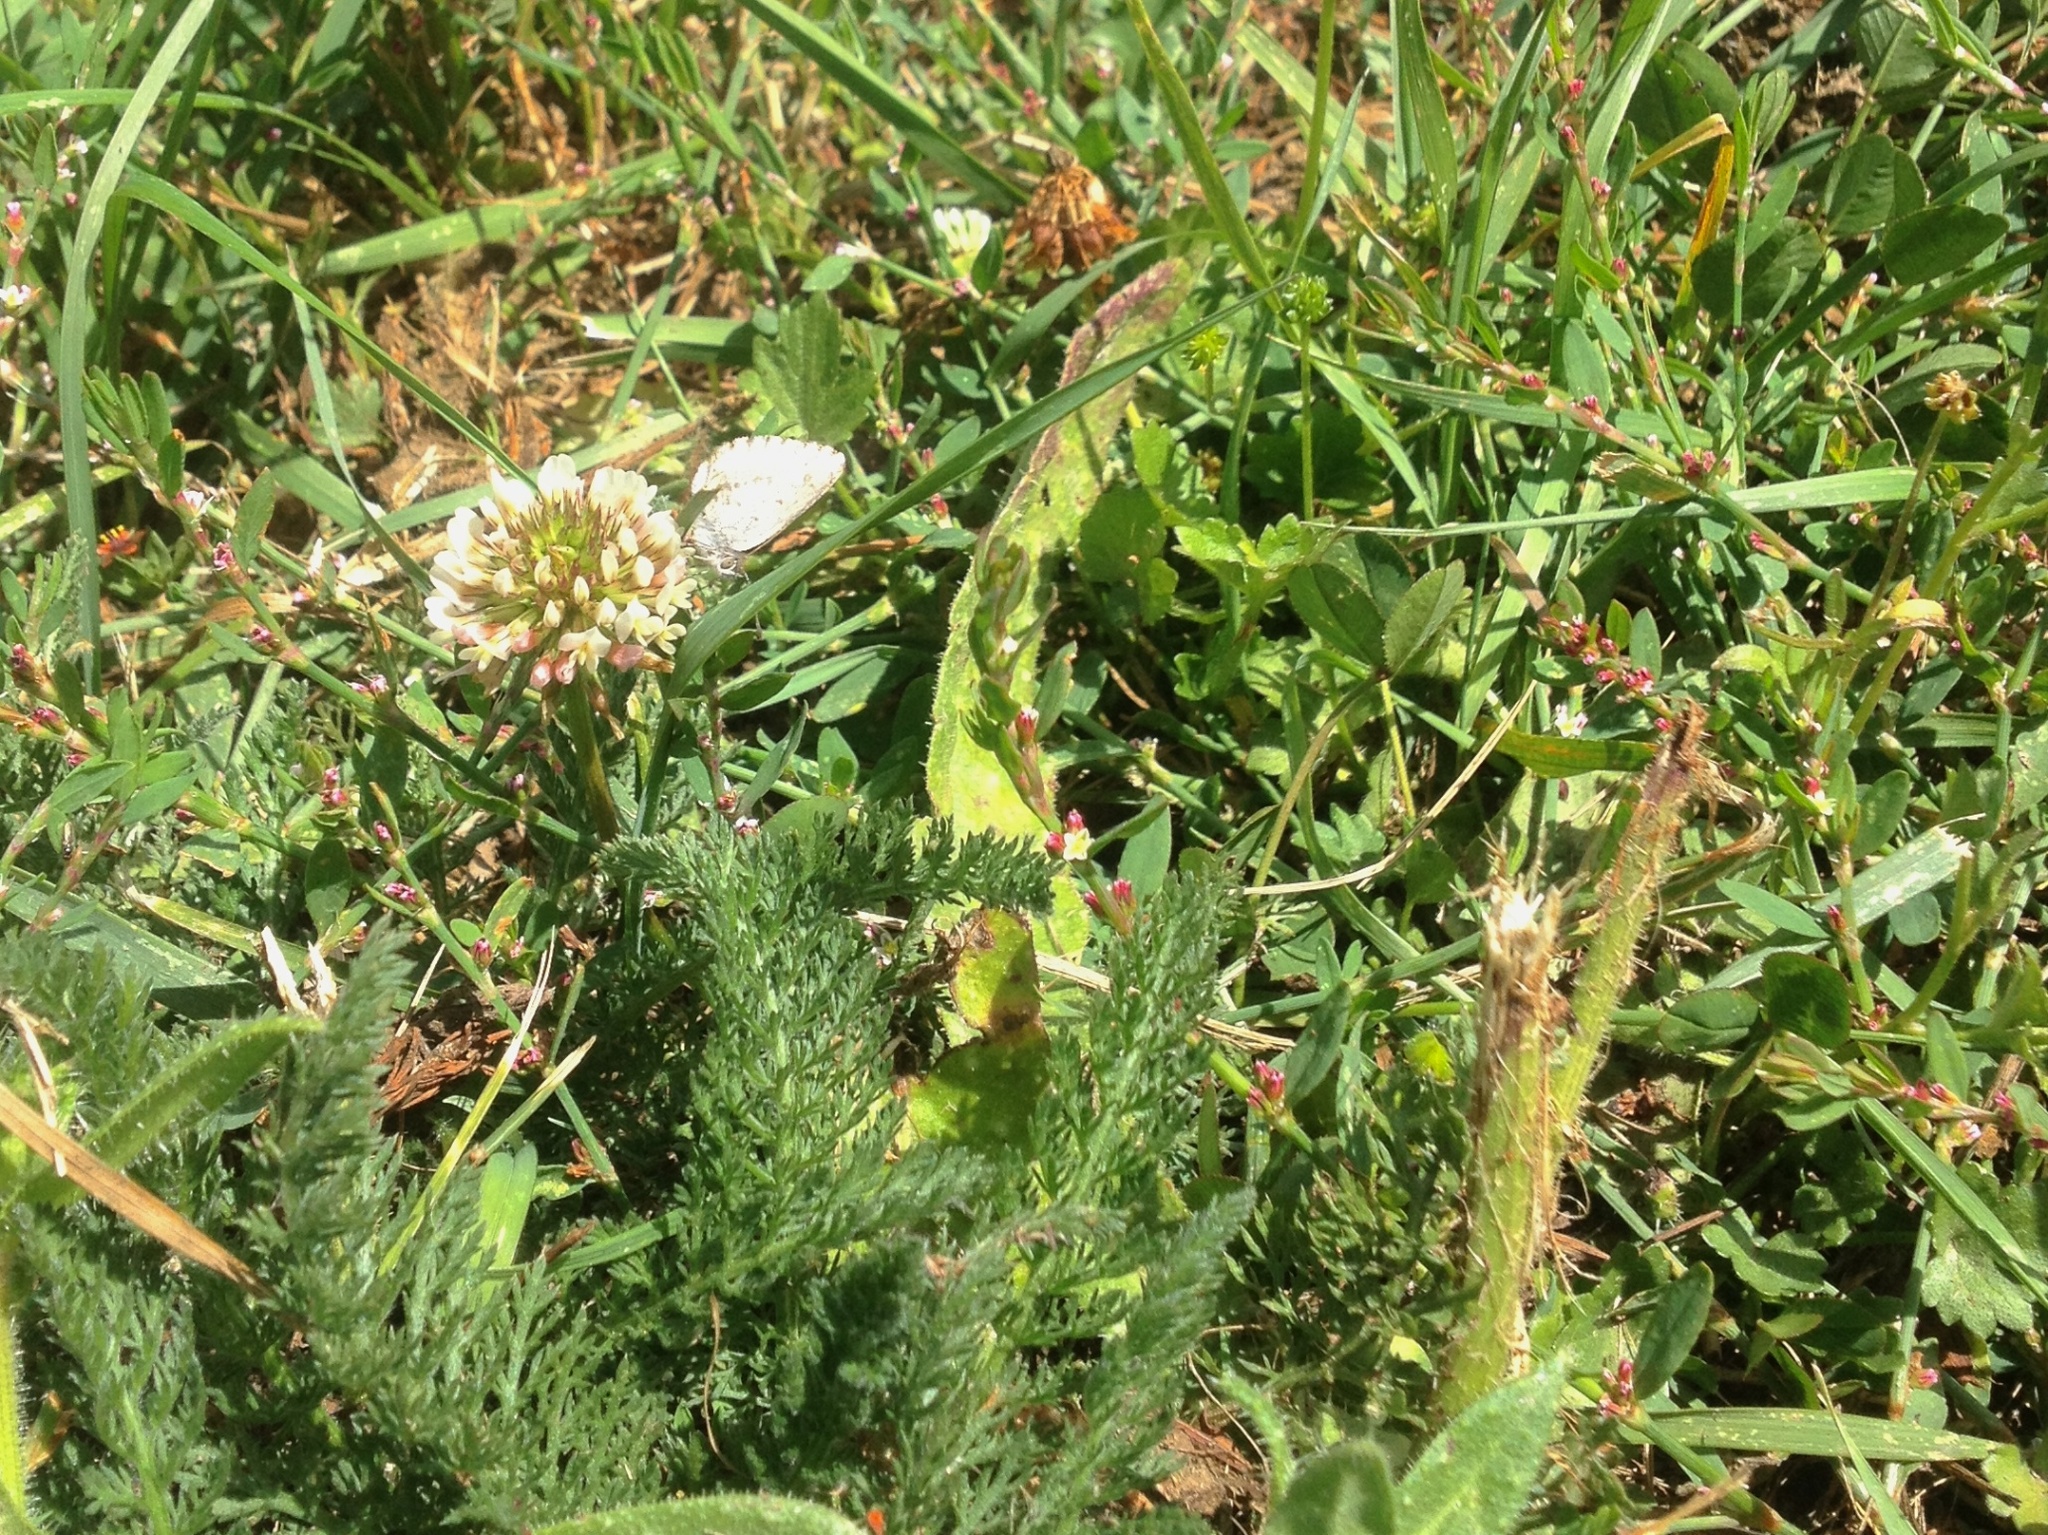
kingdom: Animalia
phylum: Arthropoda
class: Insecta
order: Lepidoptera
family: Lycaenidae
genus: Zizina
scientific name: Zizina oxleyi
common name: Southern blue
